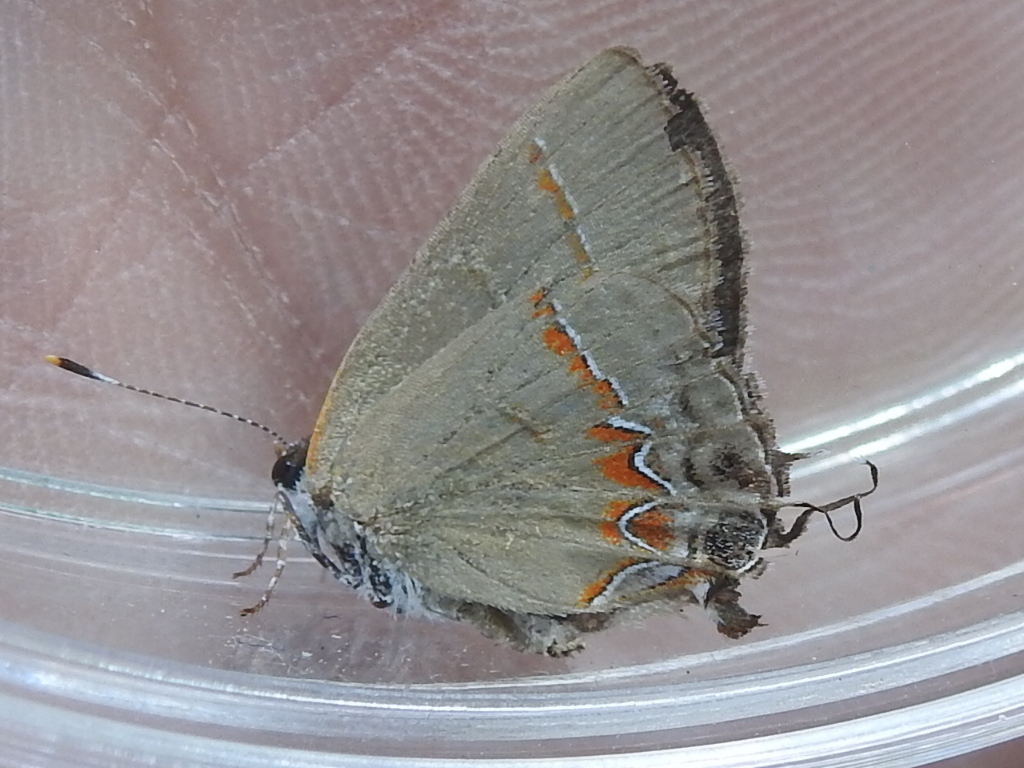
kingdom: Animalia
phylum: Arthropoda
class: Insecta
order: Lepidoptera
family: Lycaenidae
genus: Calycopis
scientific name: Calycopis isobeon
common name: Dusky-blue groundstreak
